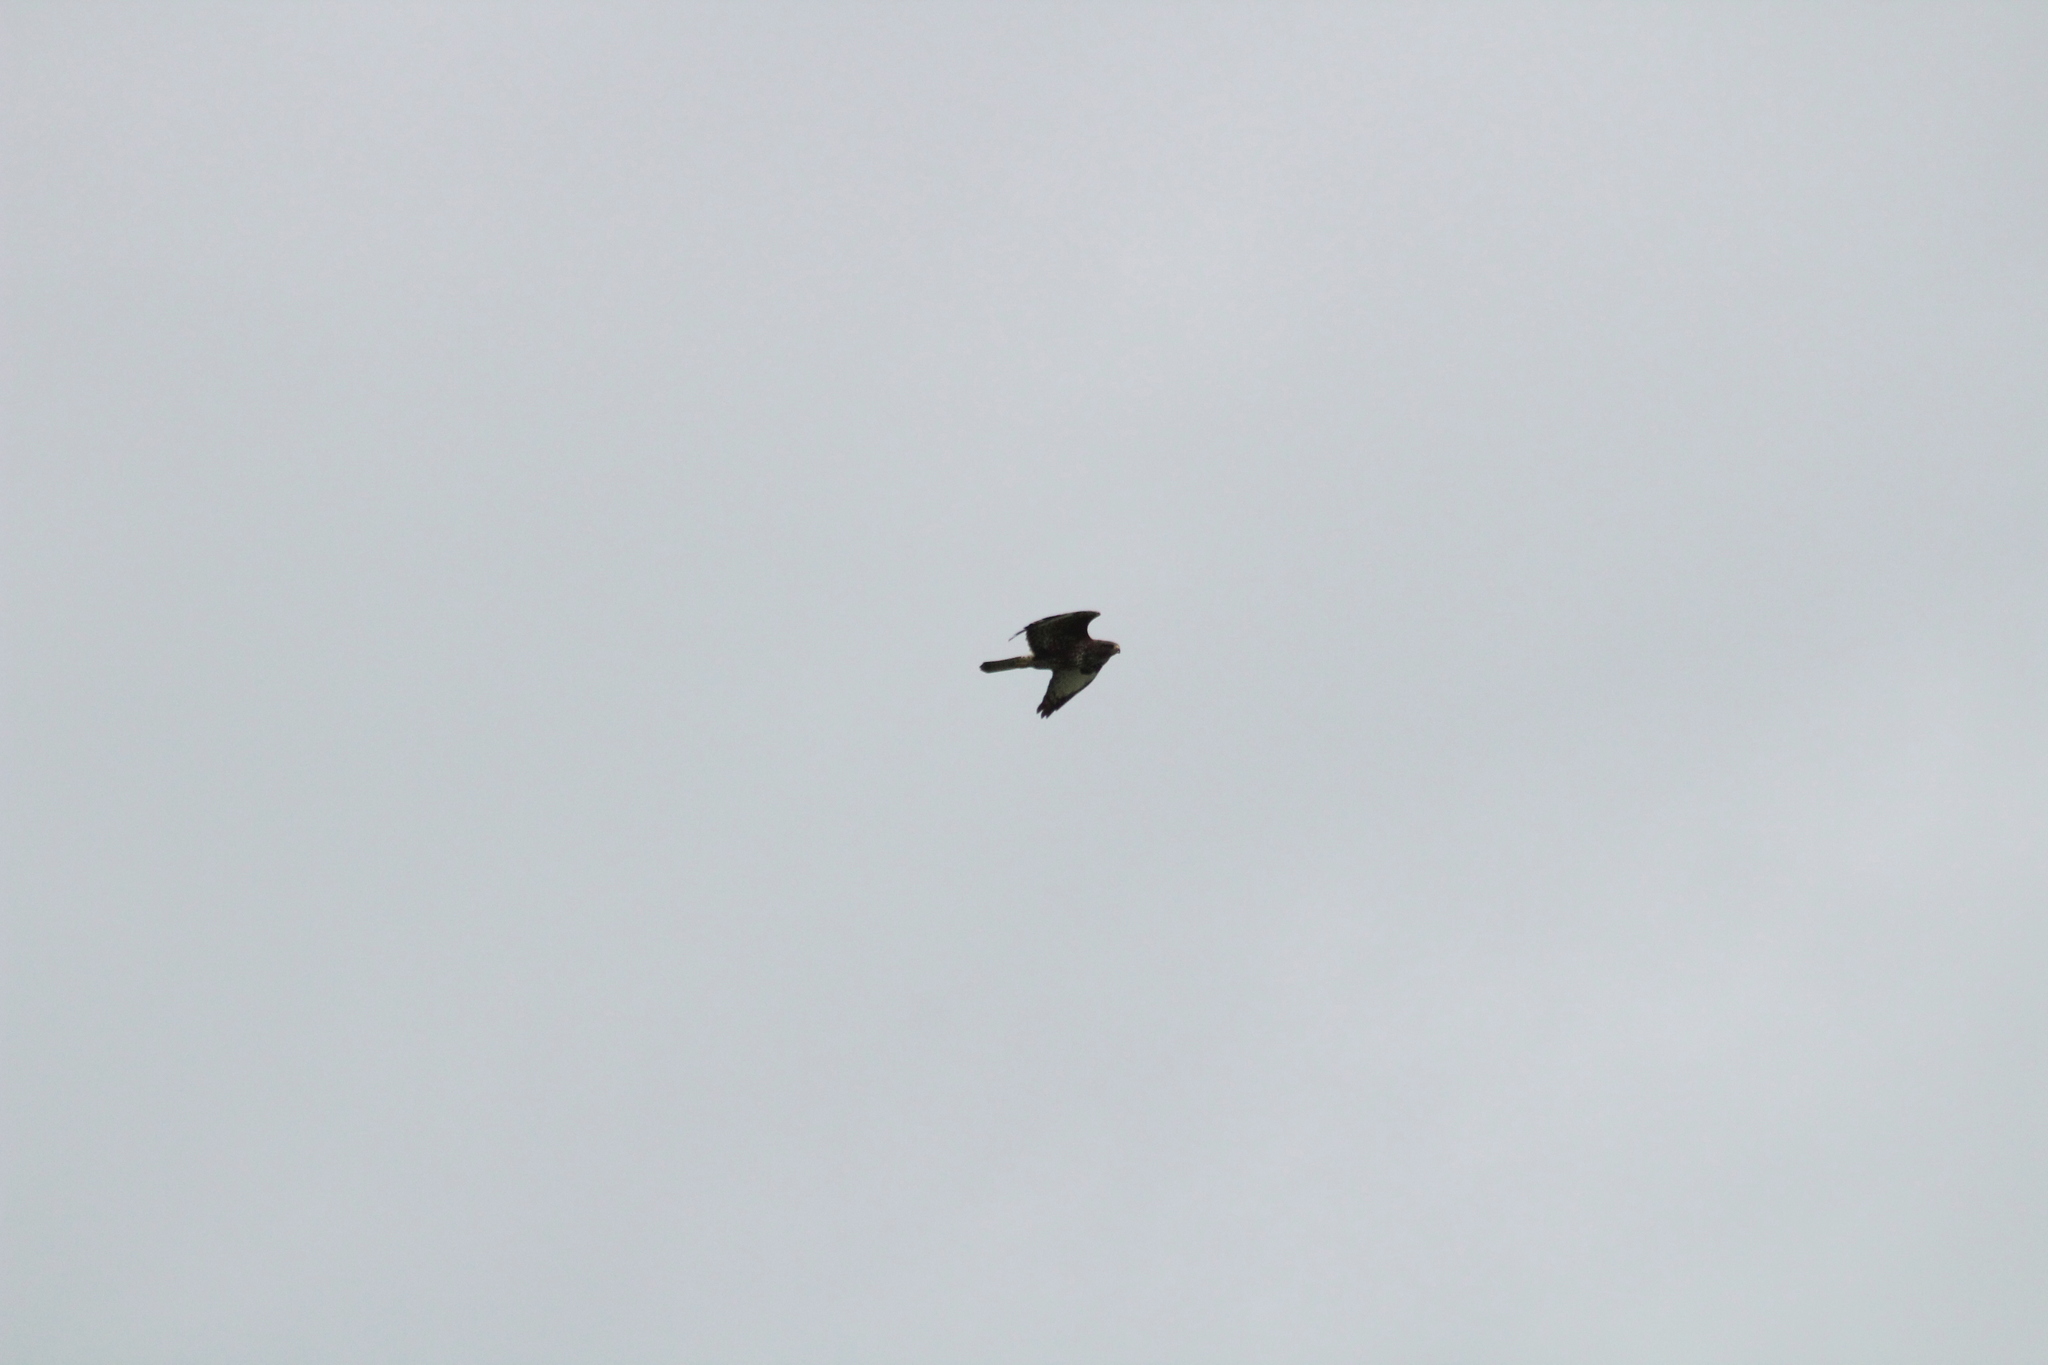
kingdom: Animalia
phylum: Chordata
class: Aves
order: Accipitriformes
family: Accipitridae
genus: Buteo
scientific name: Buteo buteo
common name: Common buzzard
